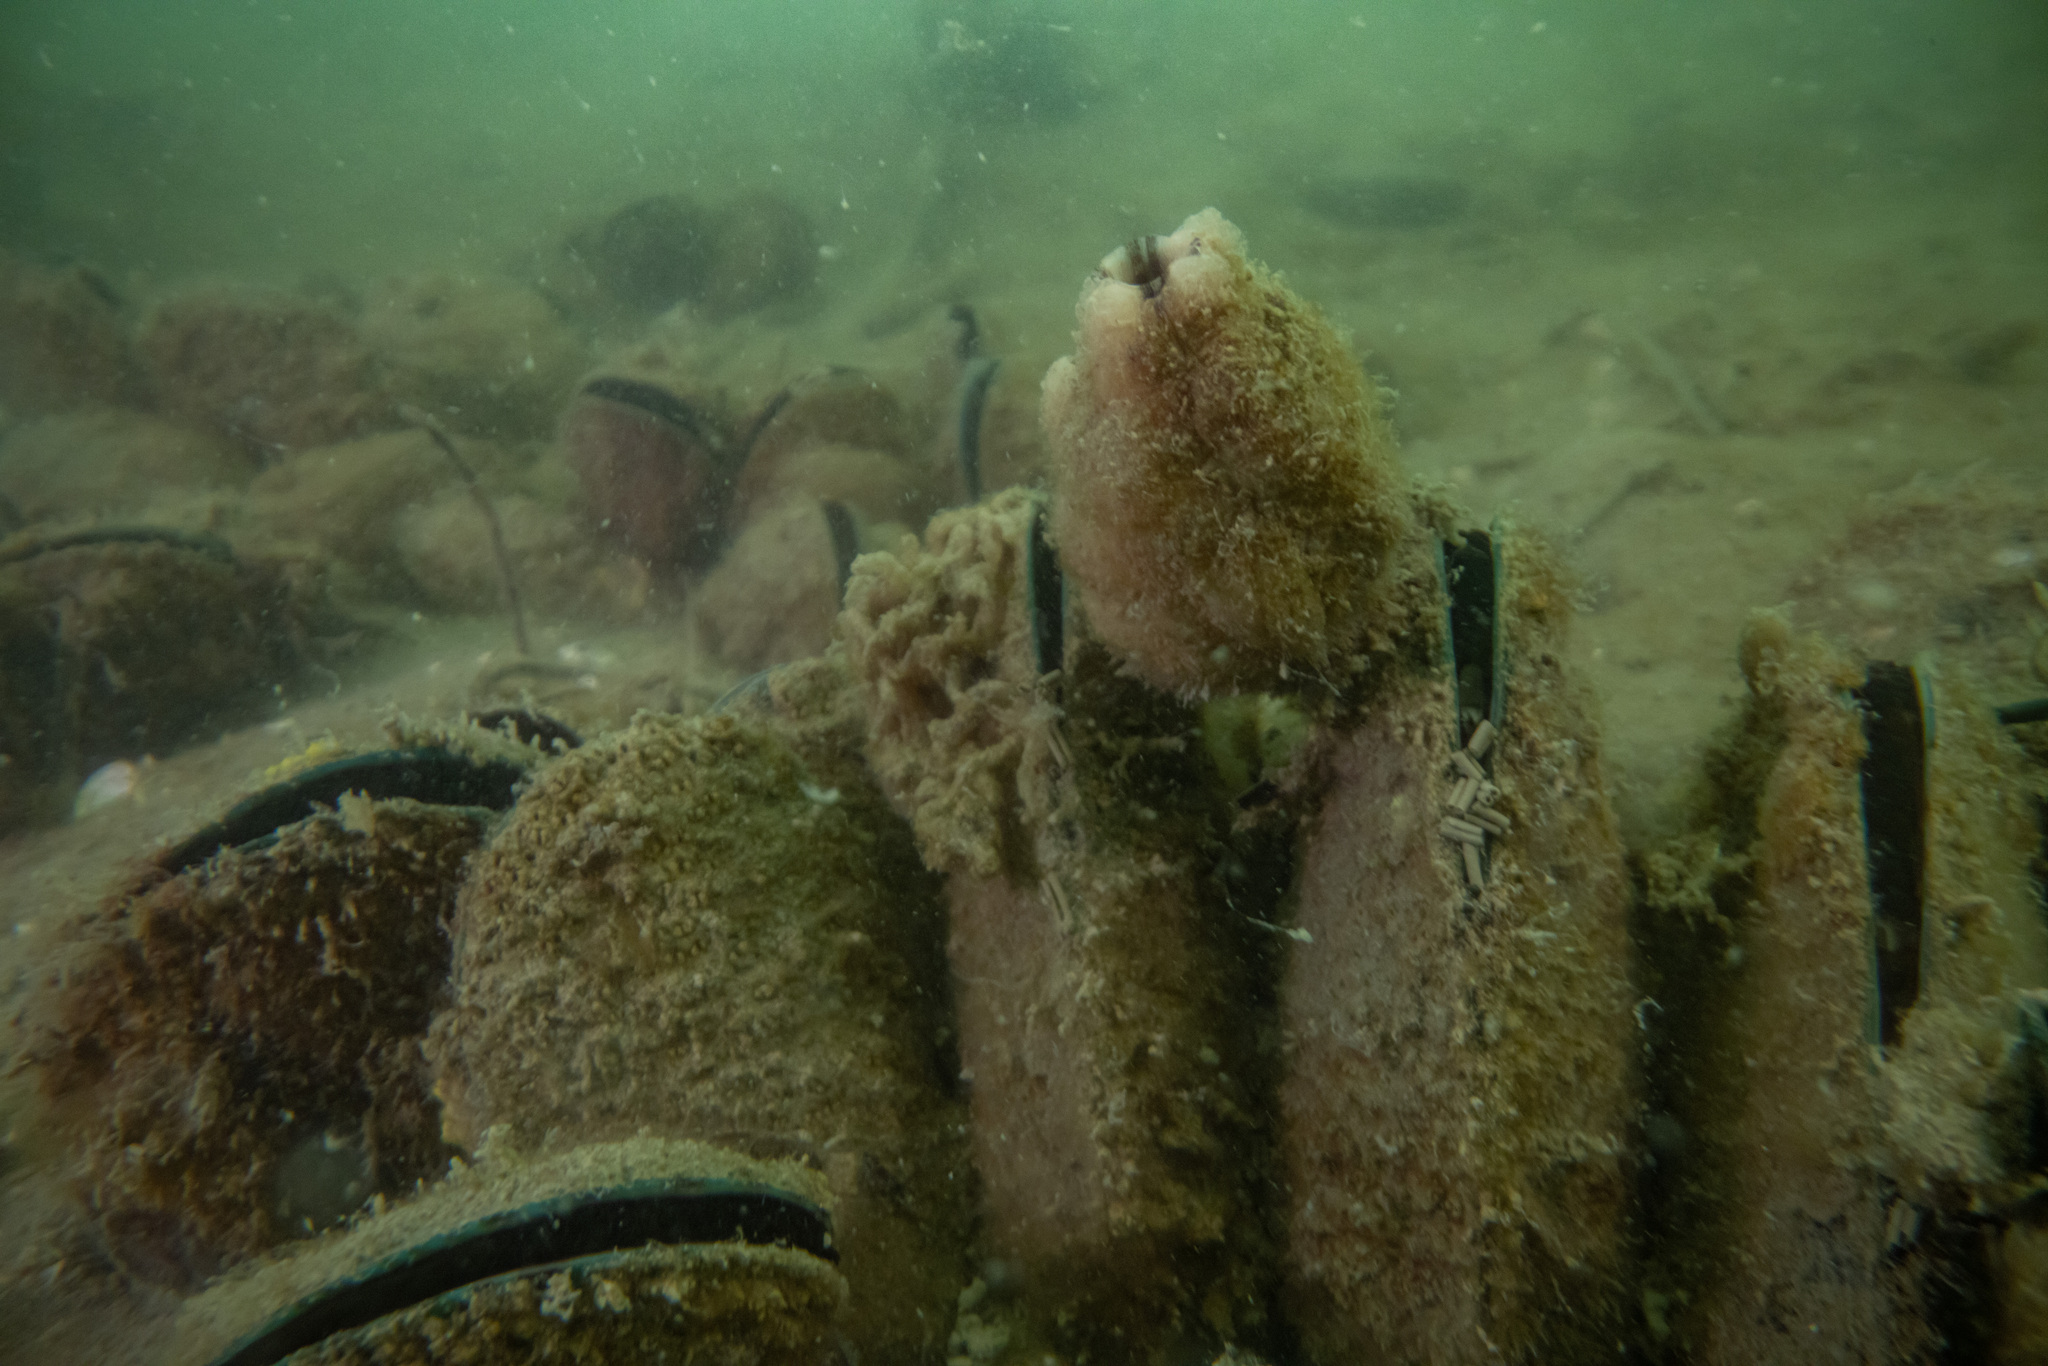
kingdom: Animalia
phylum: Chordata
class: Ascidiacea
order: Stolidobranchia
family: Styelidae
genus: Styela
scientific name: Styela plicata
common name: Pleated tunicate
